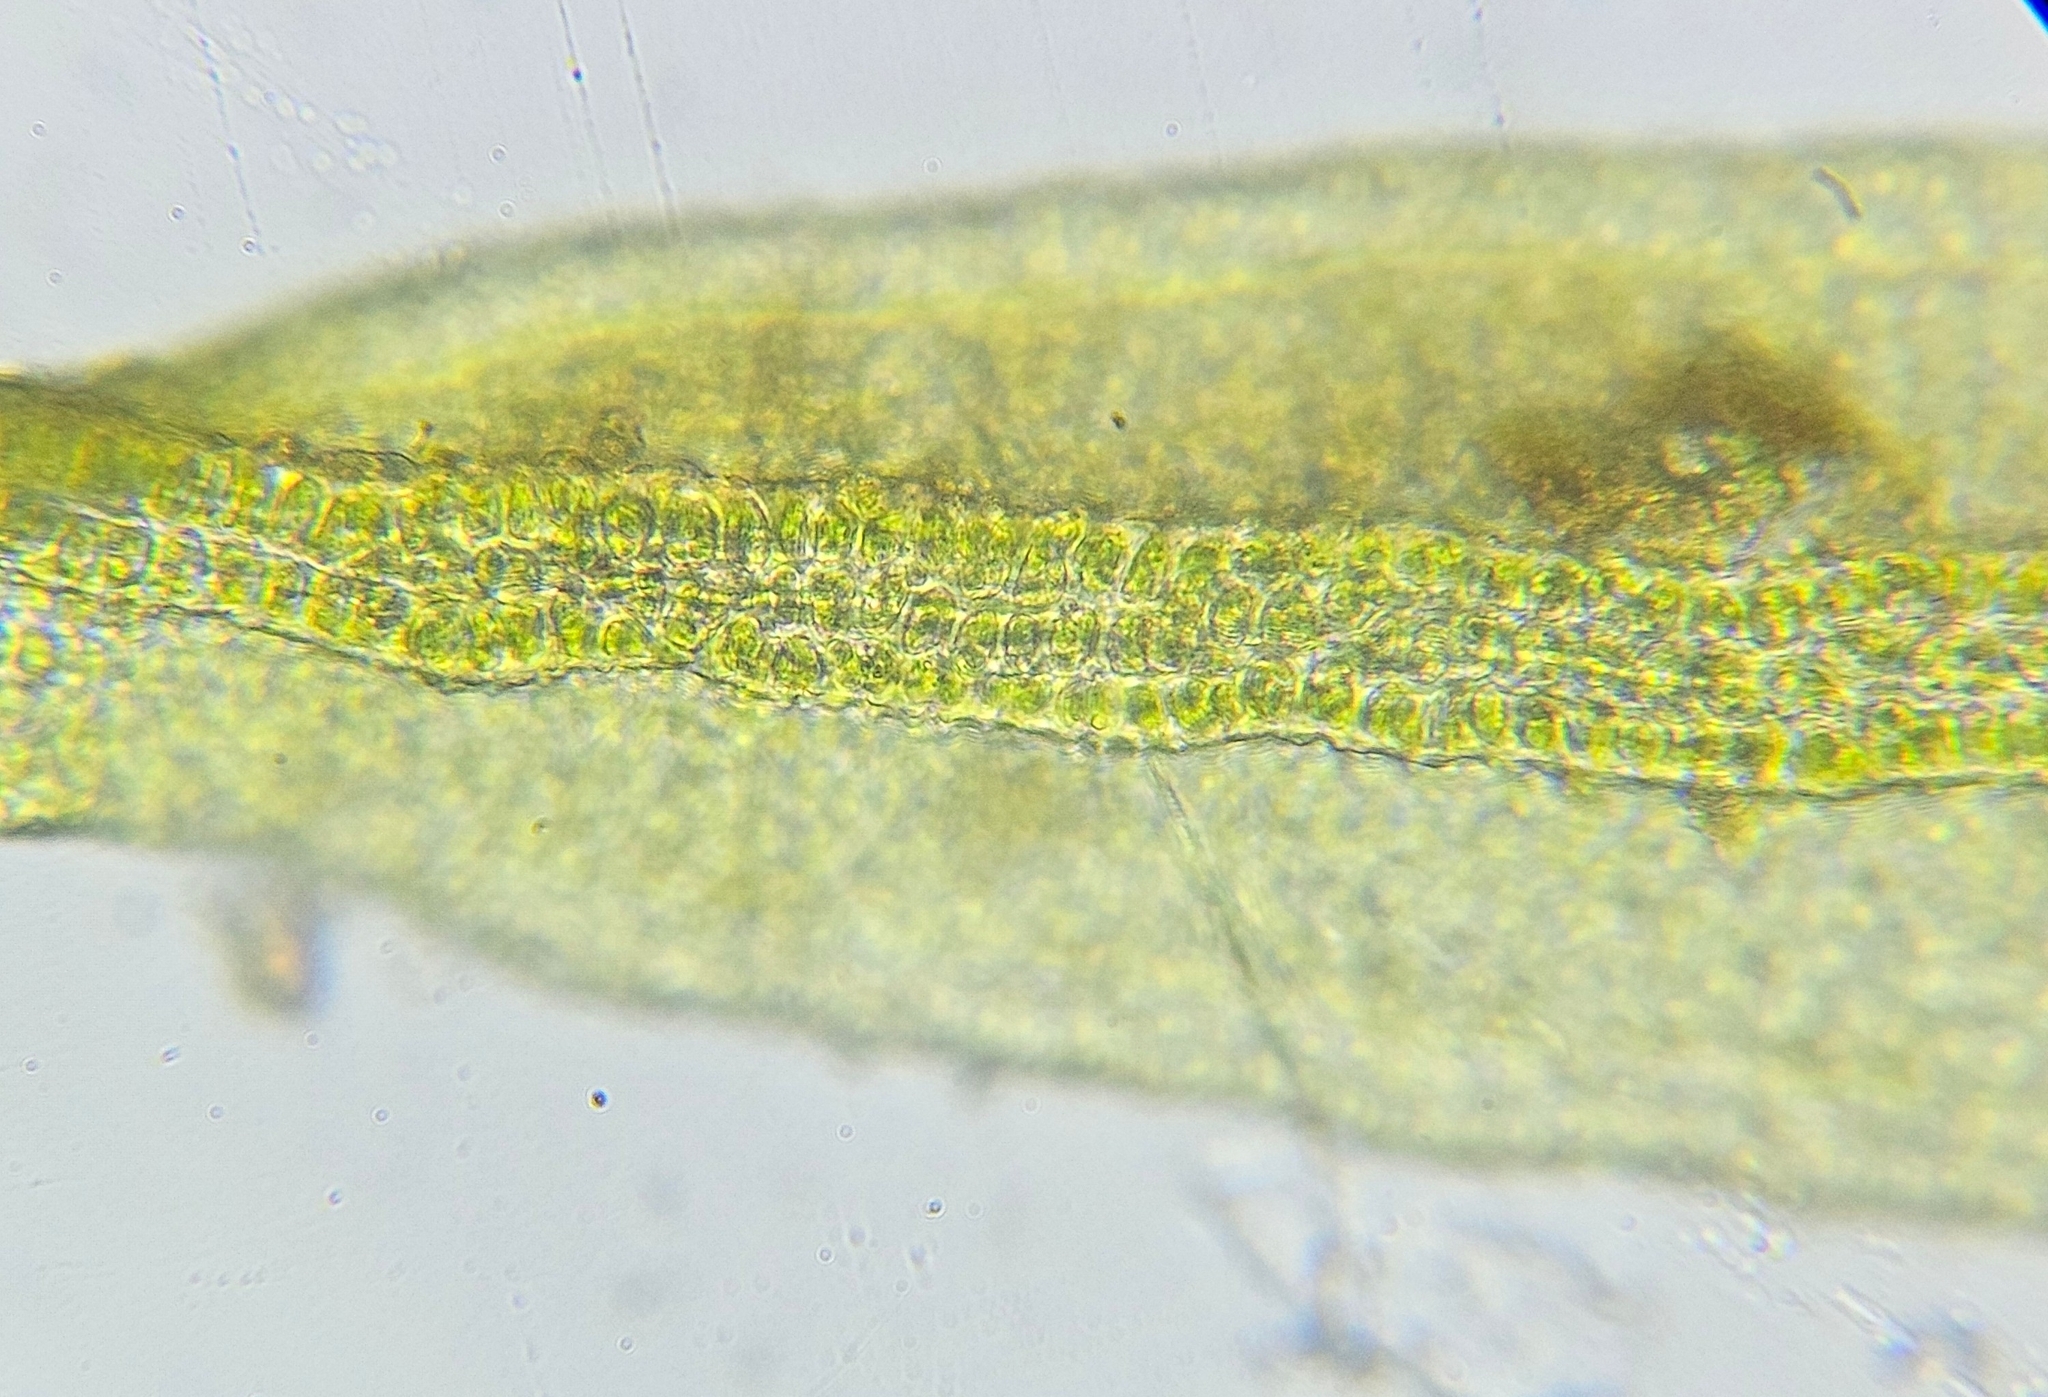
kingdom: Plantae
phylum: Bryophyta
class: Bryopsida
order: Pottiales
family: Pottiaceae
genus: Vinealobryum
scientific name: Vinealobryum vineale
